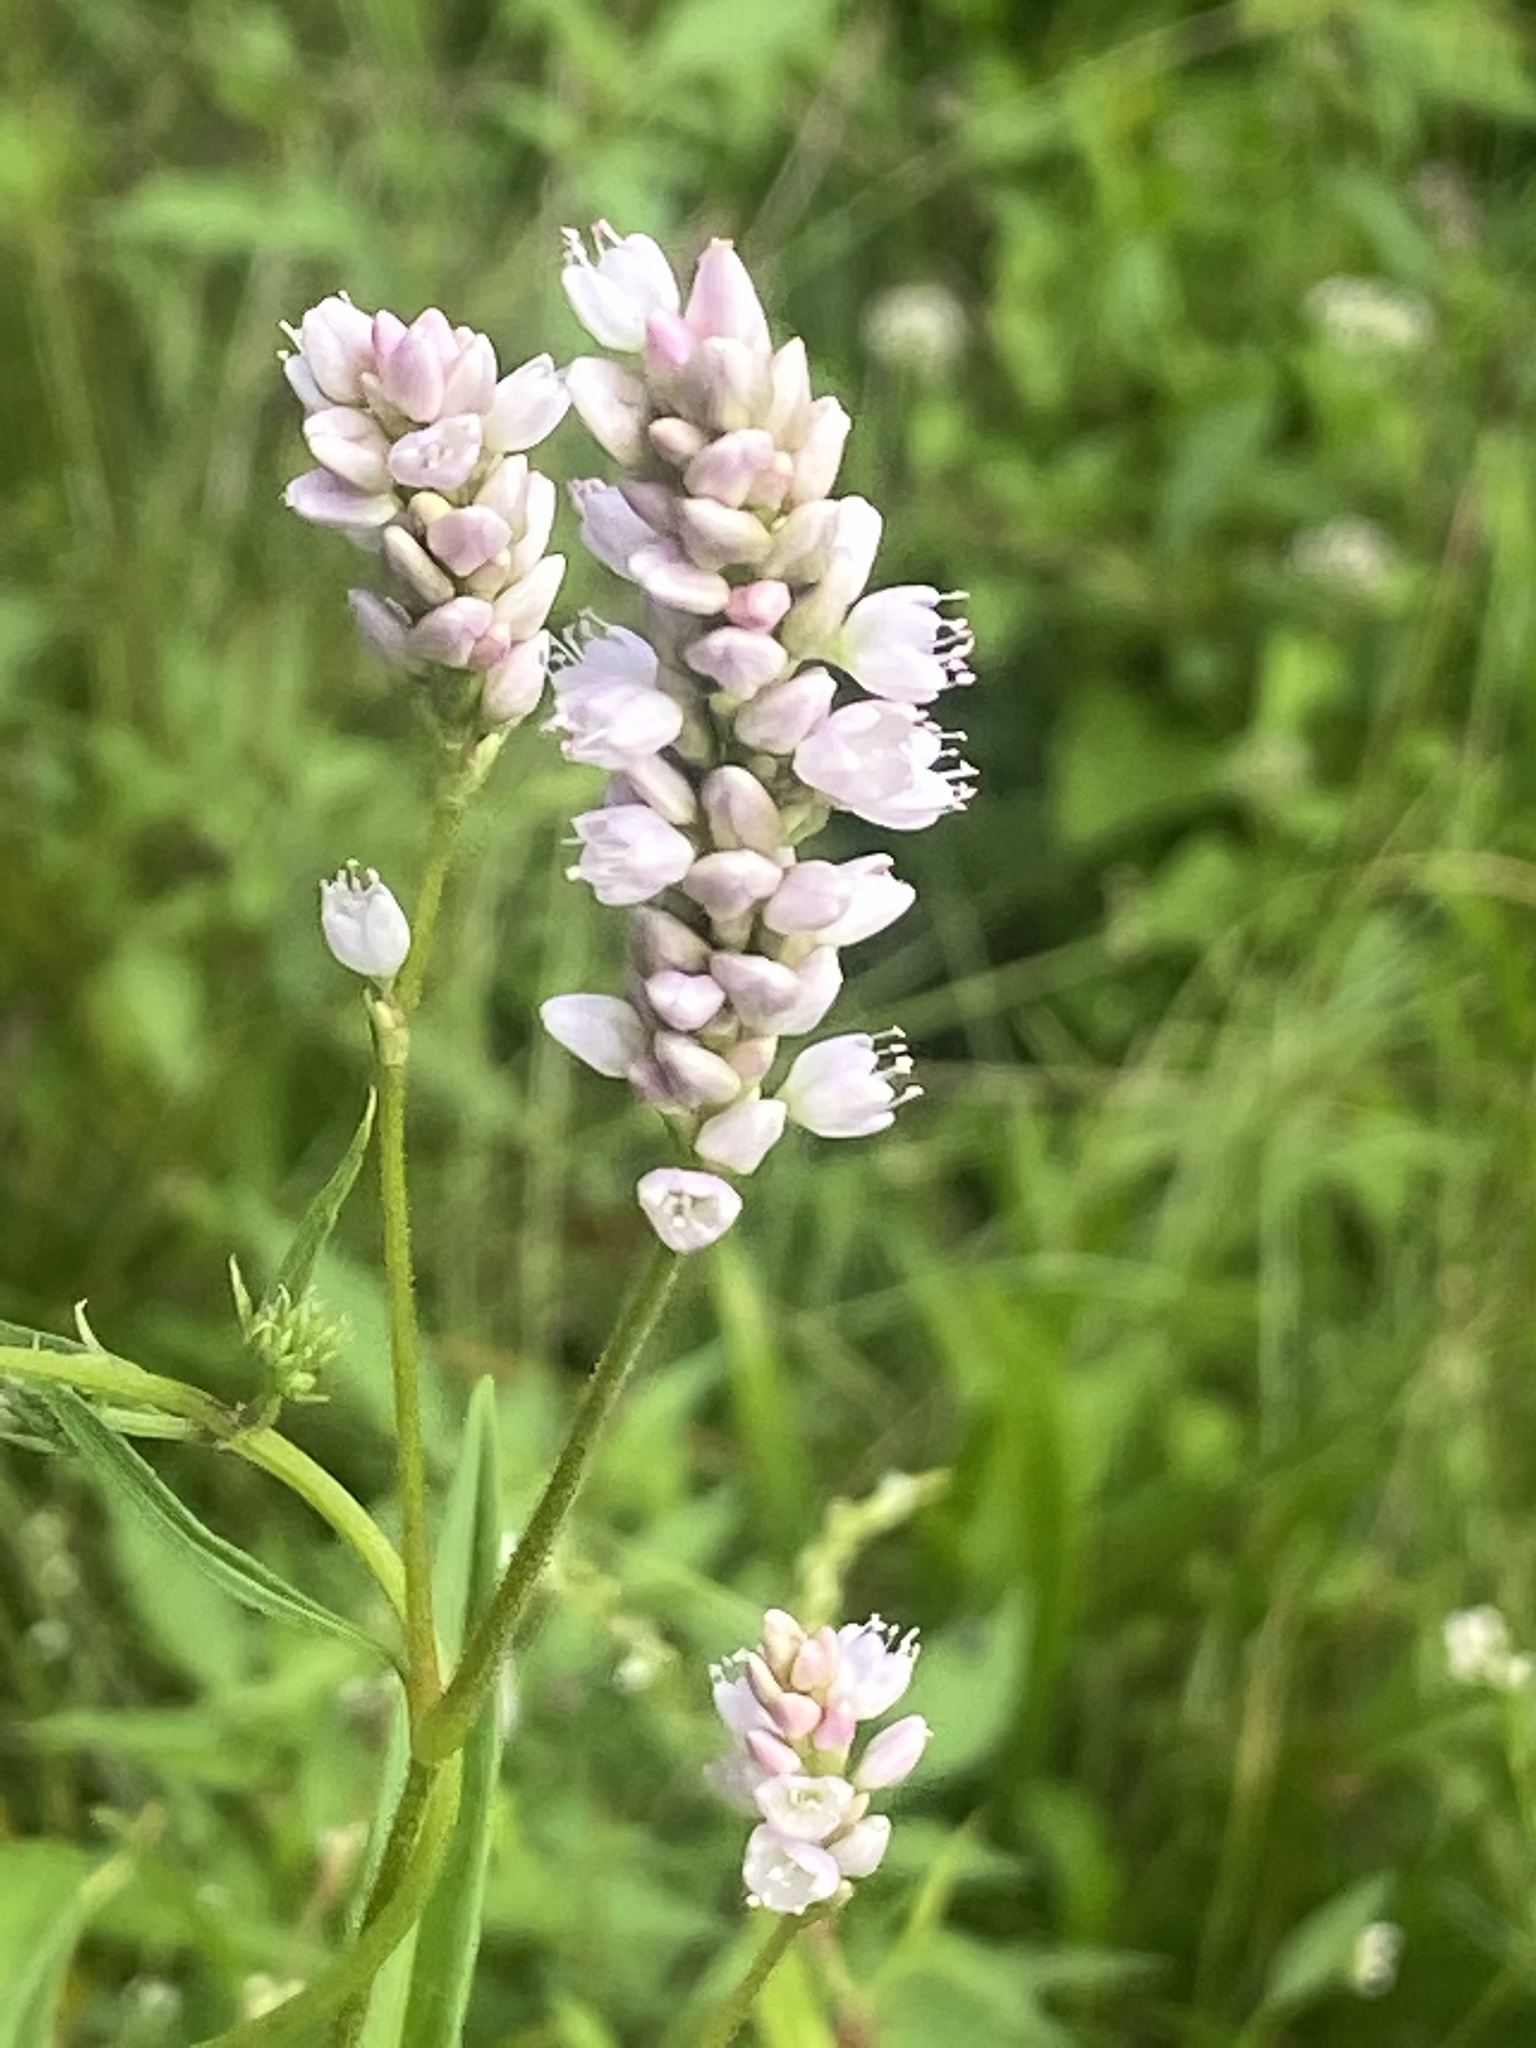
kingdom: Plantae
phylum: Tracheophyta
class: Magnoliopsida
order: Caryophyllales
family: Polygonaceae
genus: Persicaria
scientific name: Persicaria pensylvanica
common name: Pinkweed
